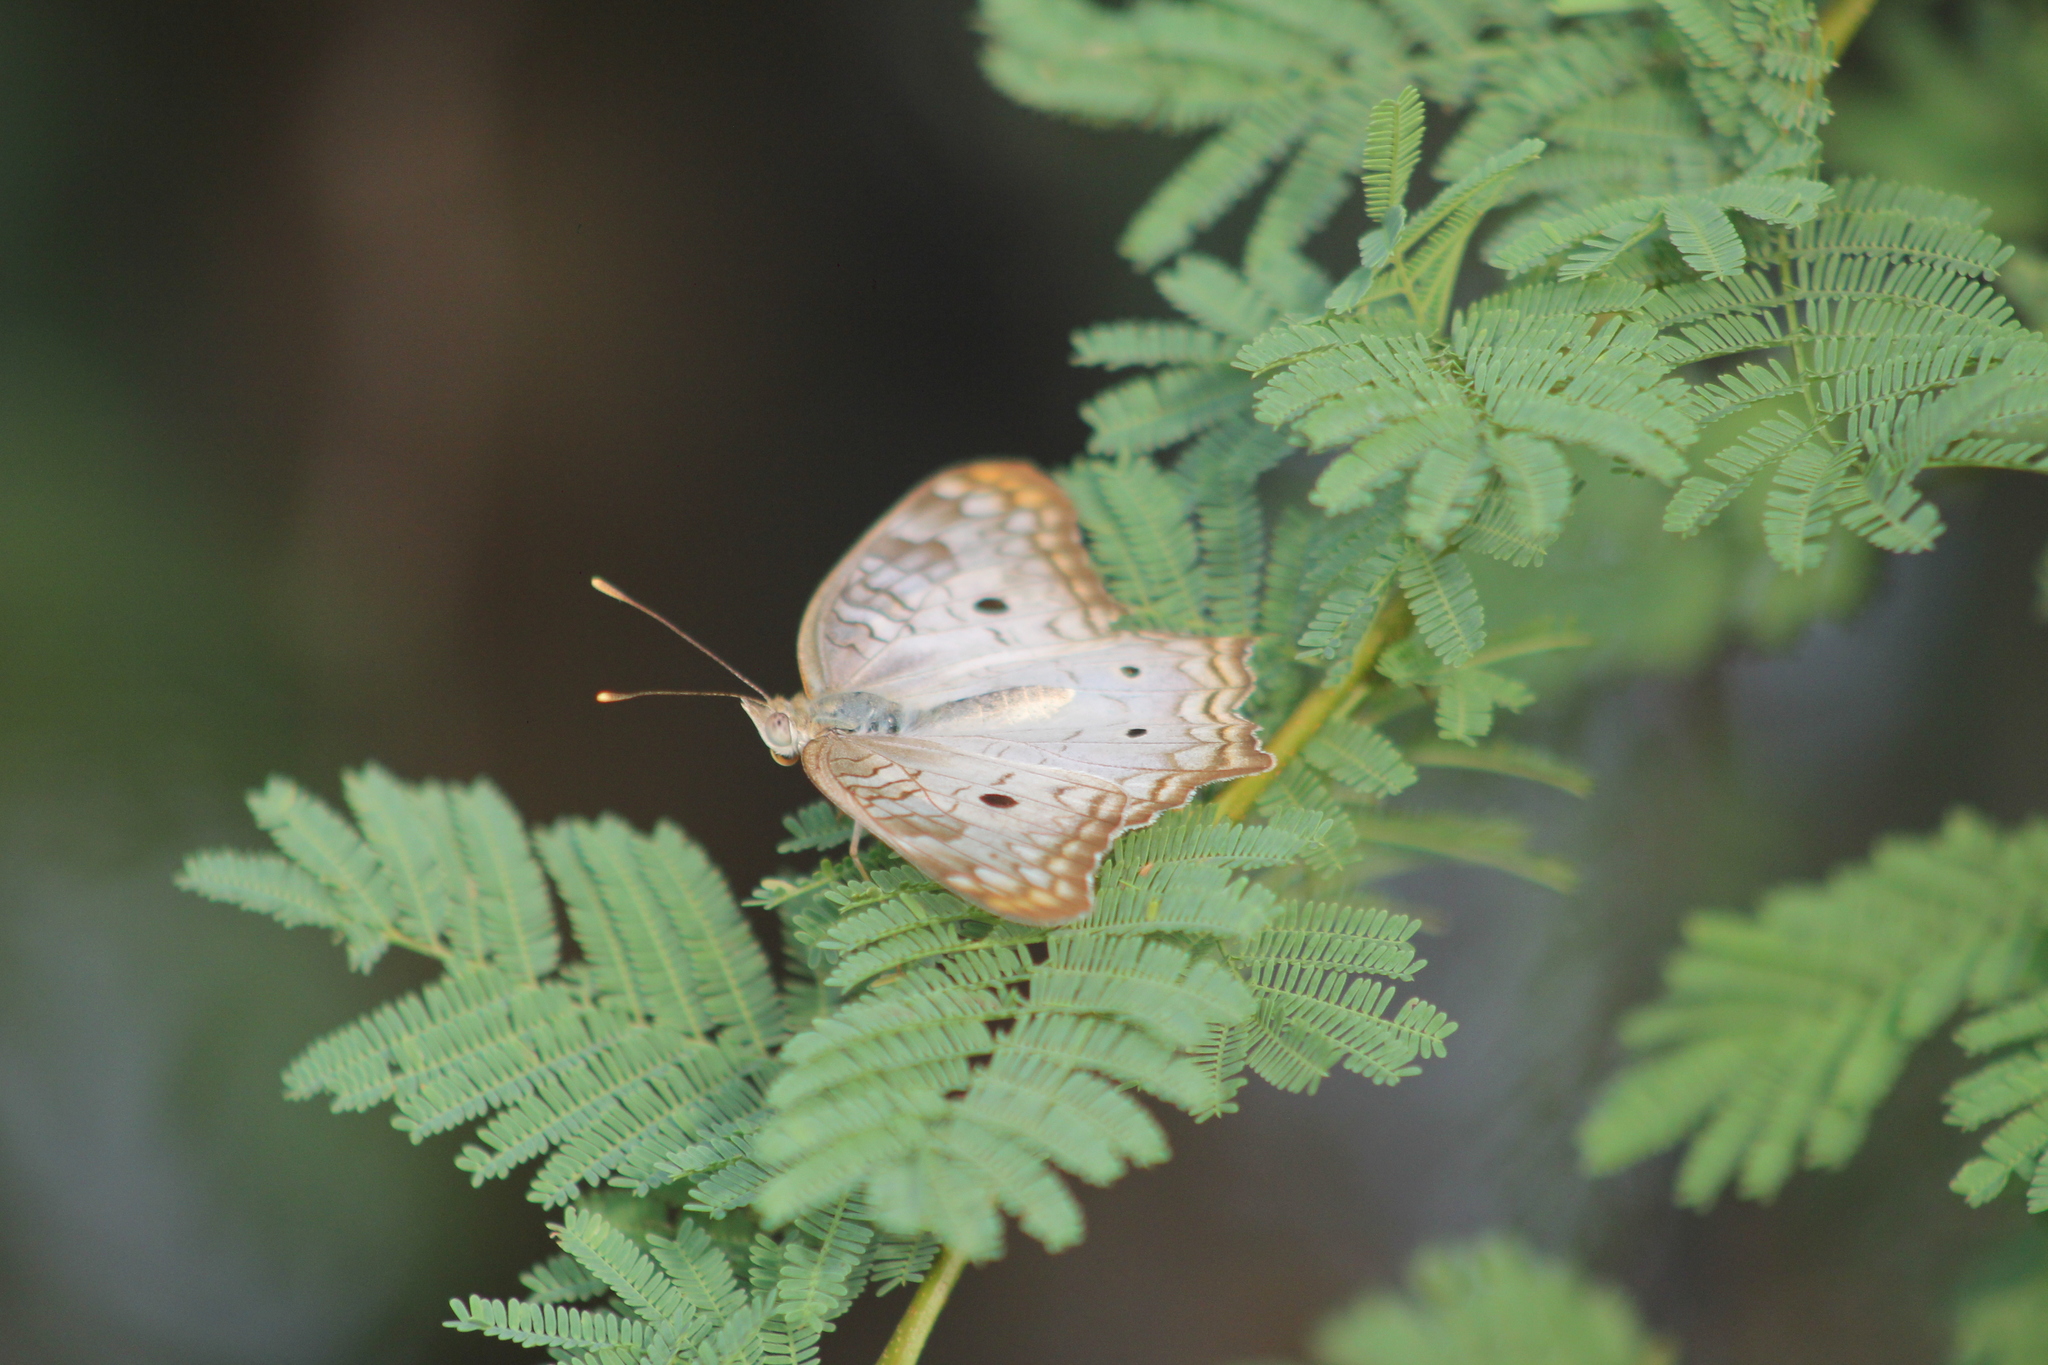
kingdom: Animalia
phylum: Arthropoda
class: Insecta
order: Lepidoptera
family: Nymphalidae
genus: Anartia
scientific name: Anartia jatrophae
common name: White peacock
